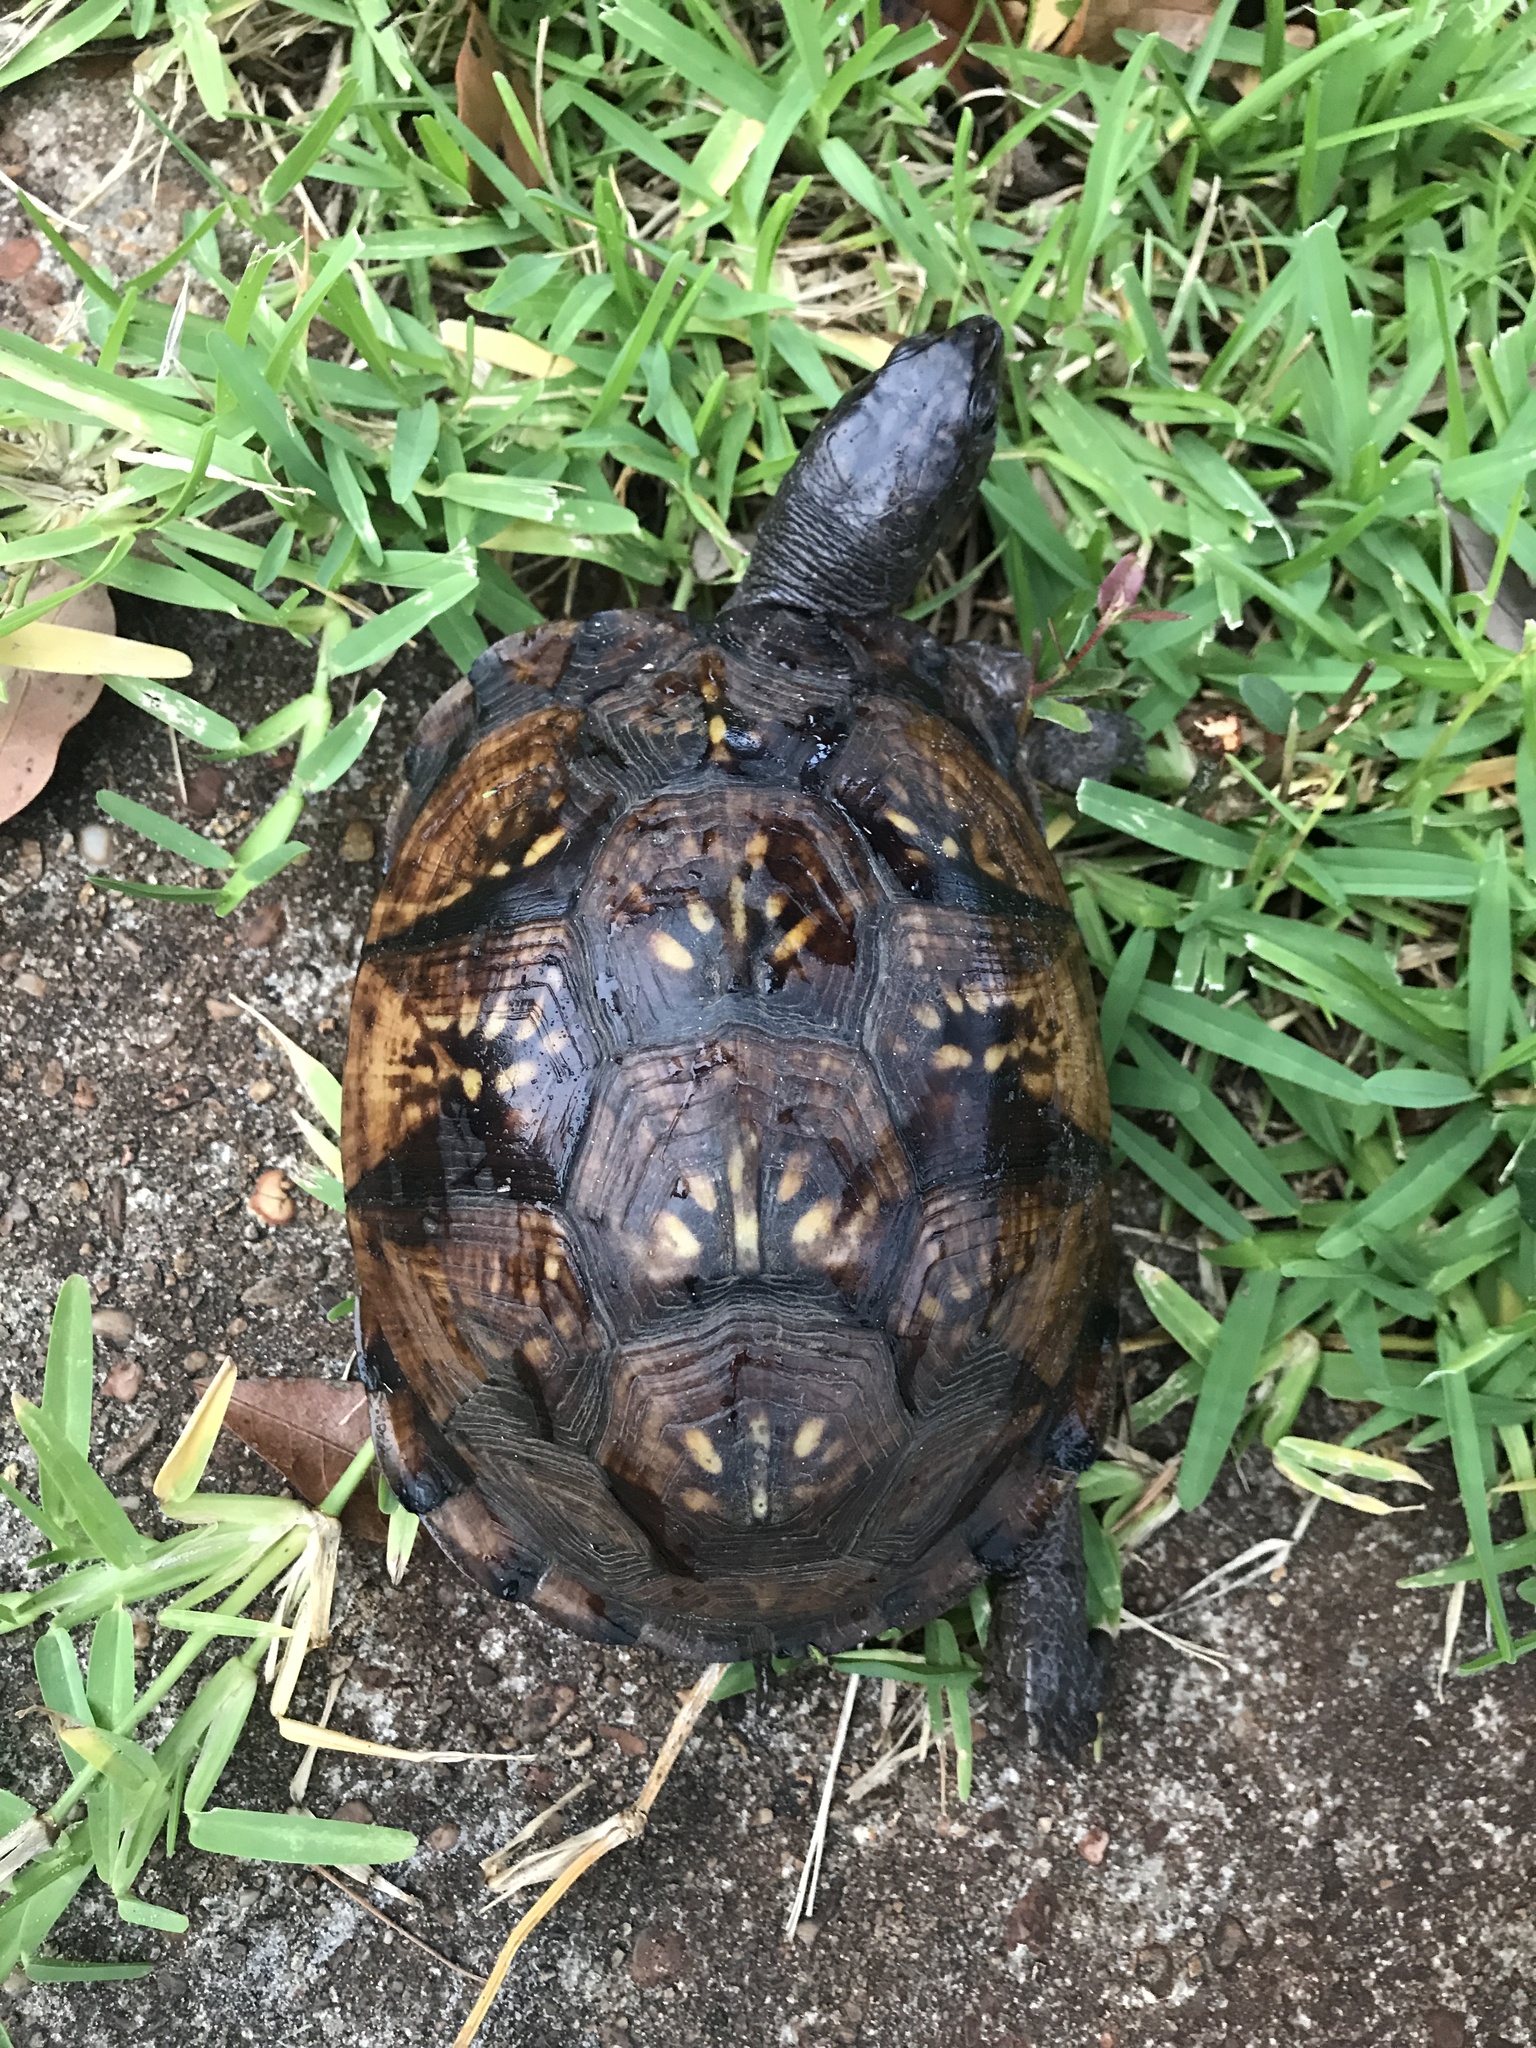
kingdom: Animalia
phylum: Chordata
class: Testudines
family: Emydidae
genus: Terrapene
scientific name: Terrapene carolina
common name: Common box turtle
